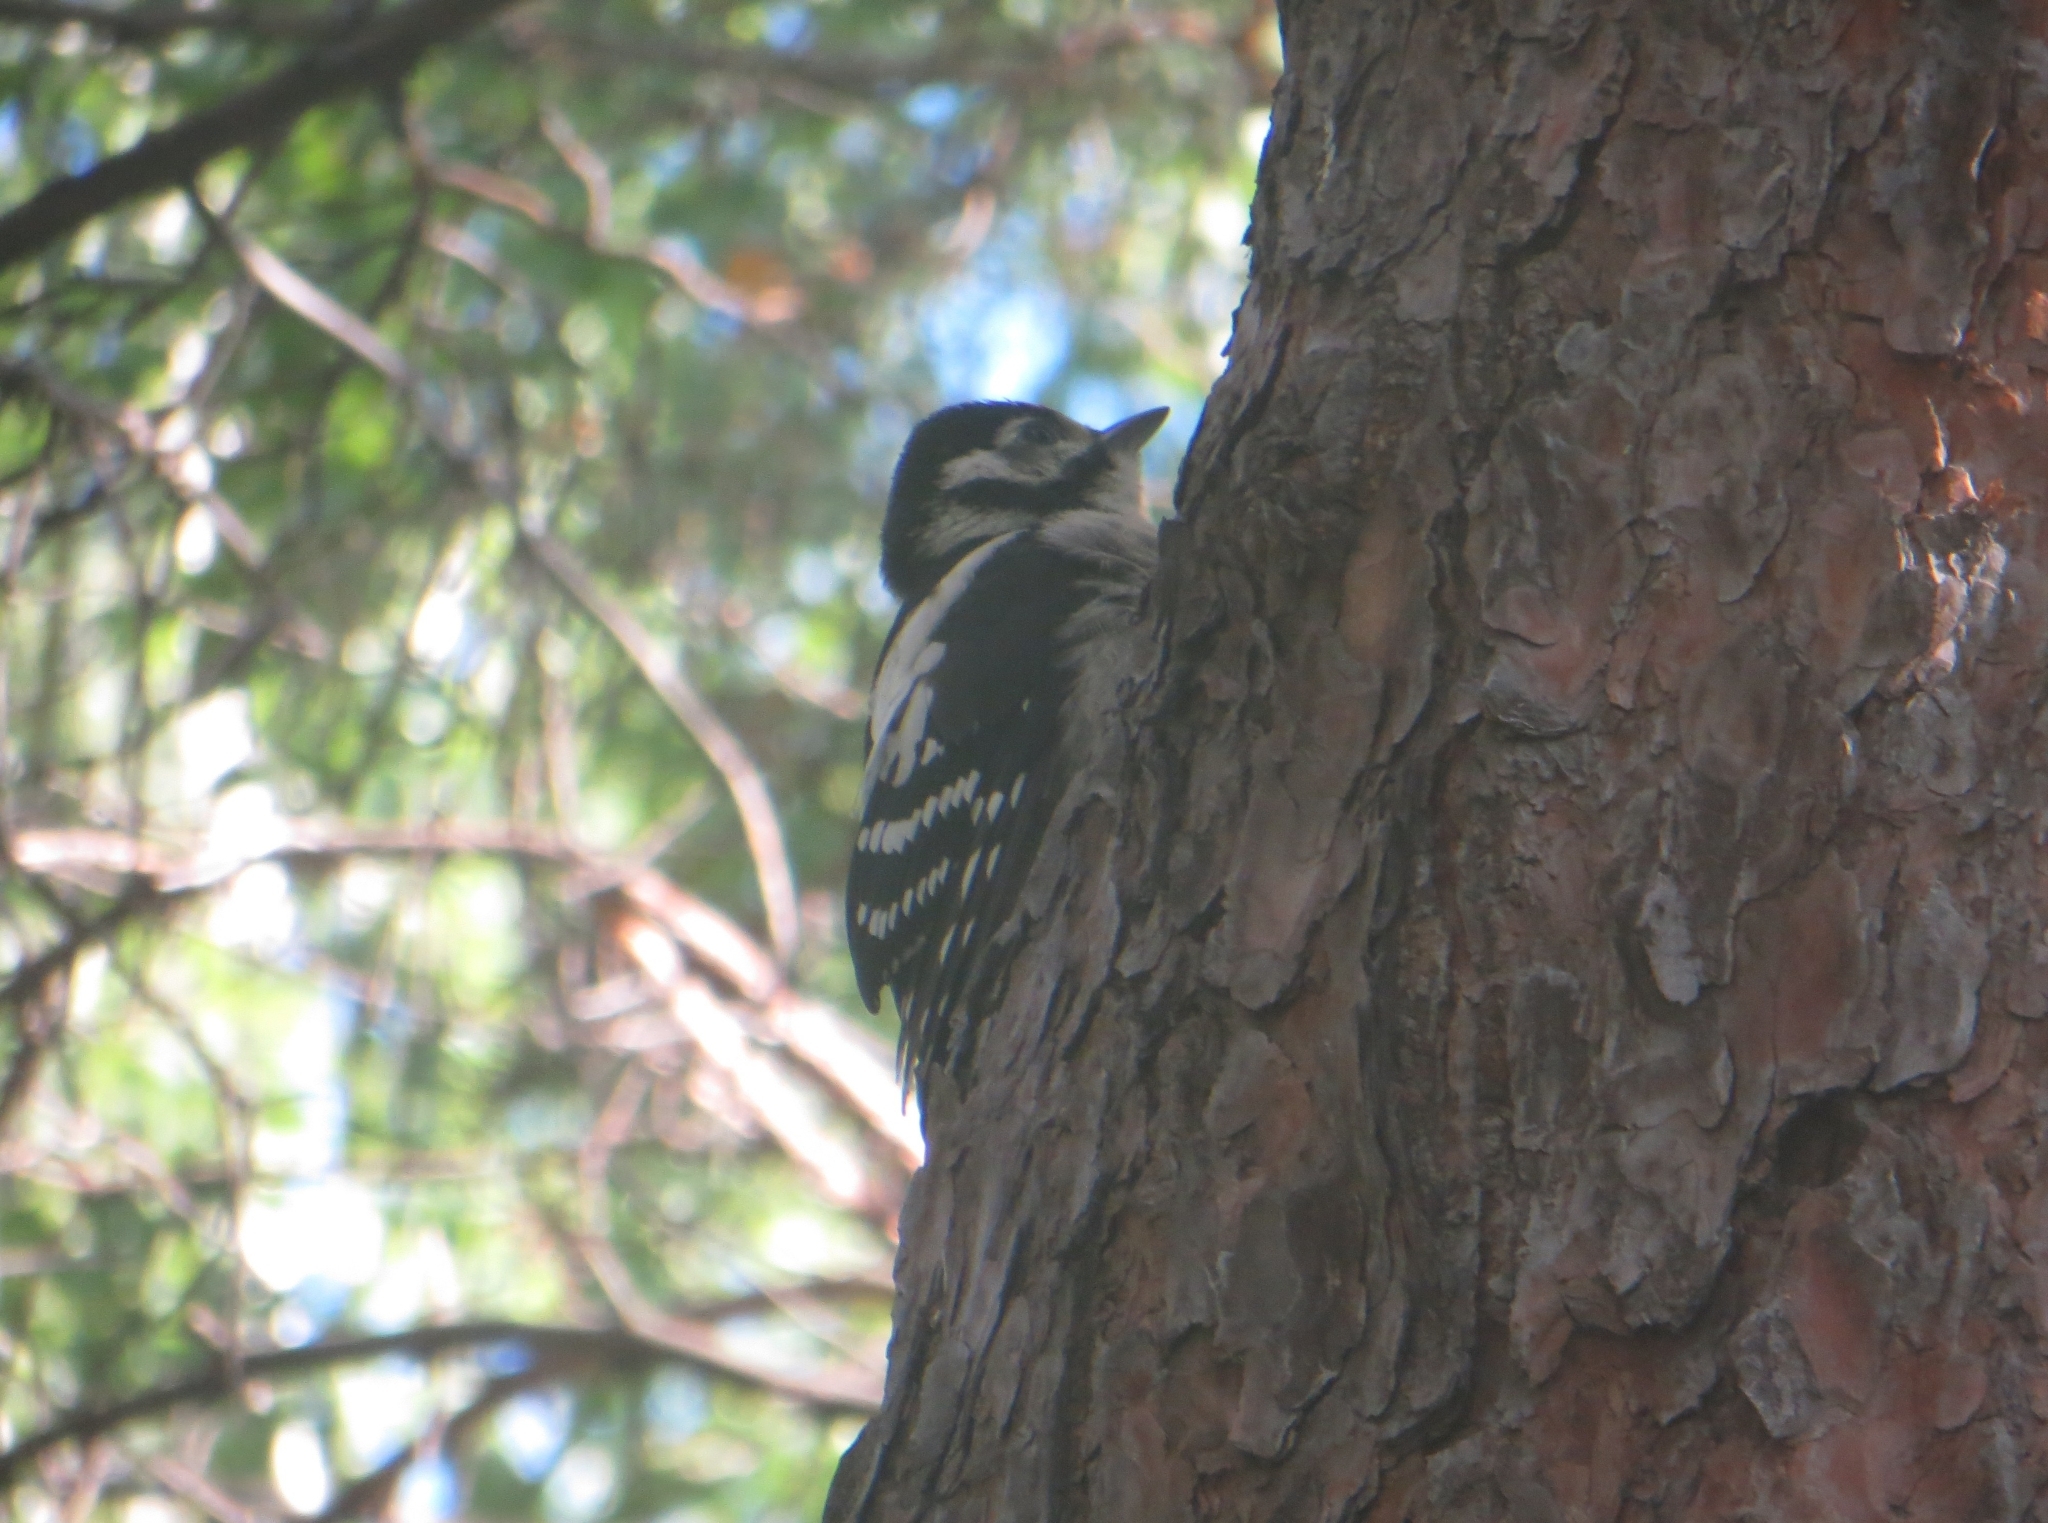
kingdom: Animalia
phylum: Chordata
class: Aves
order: Piciformes
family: Picidae
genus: Dendrocopos
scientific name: Dendrocopos major
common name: Great spotted woodpecker
